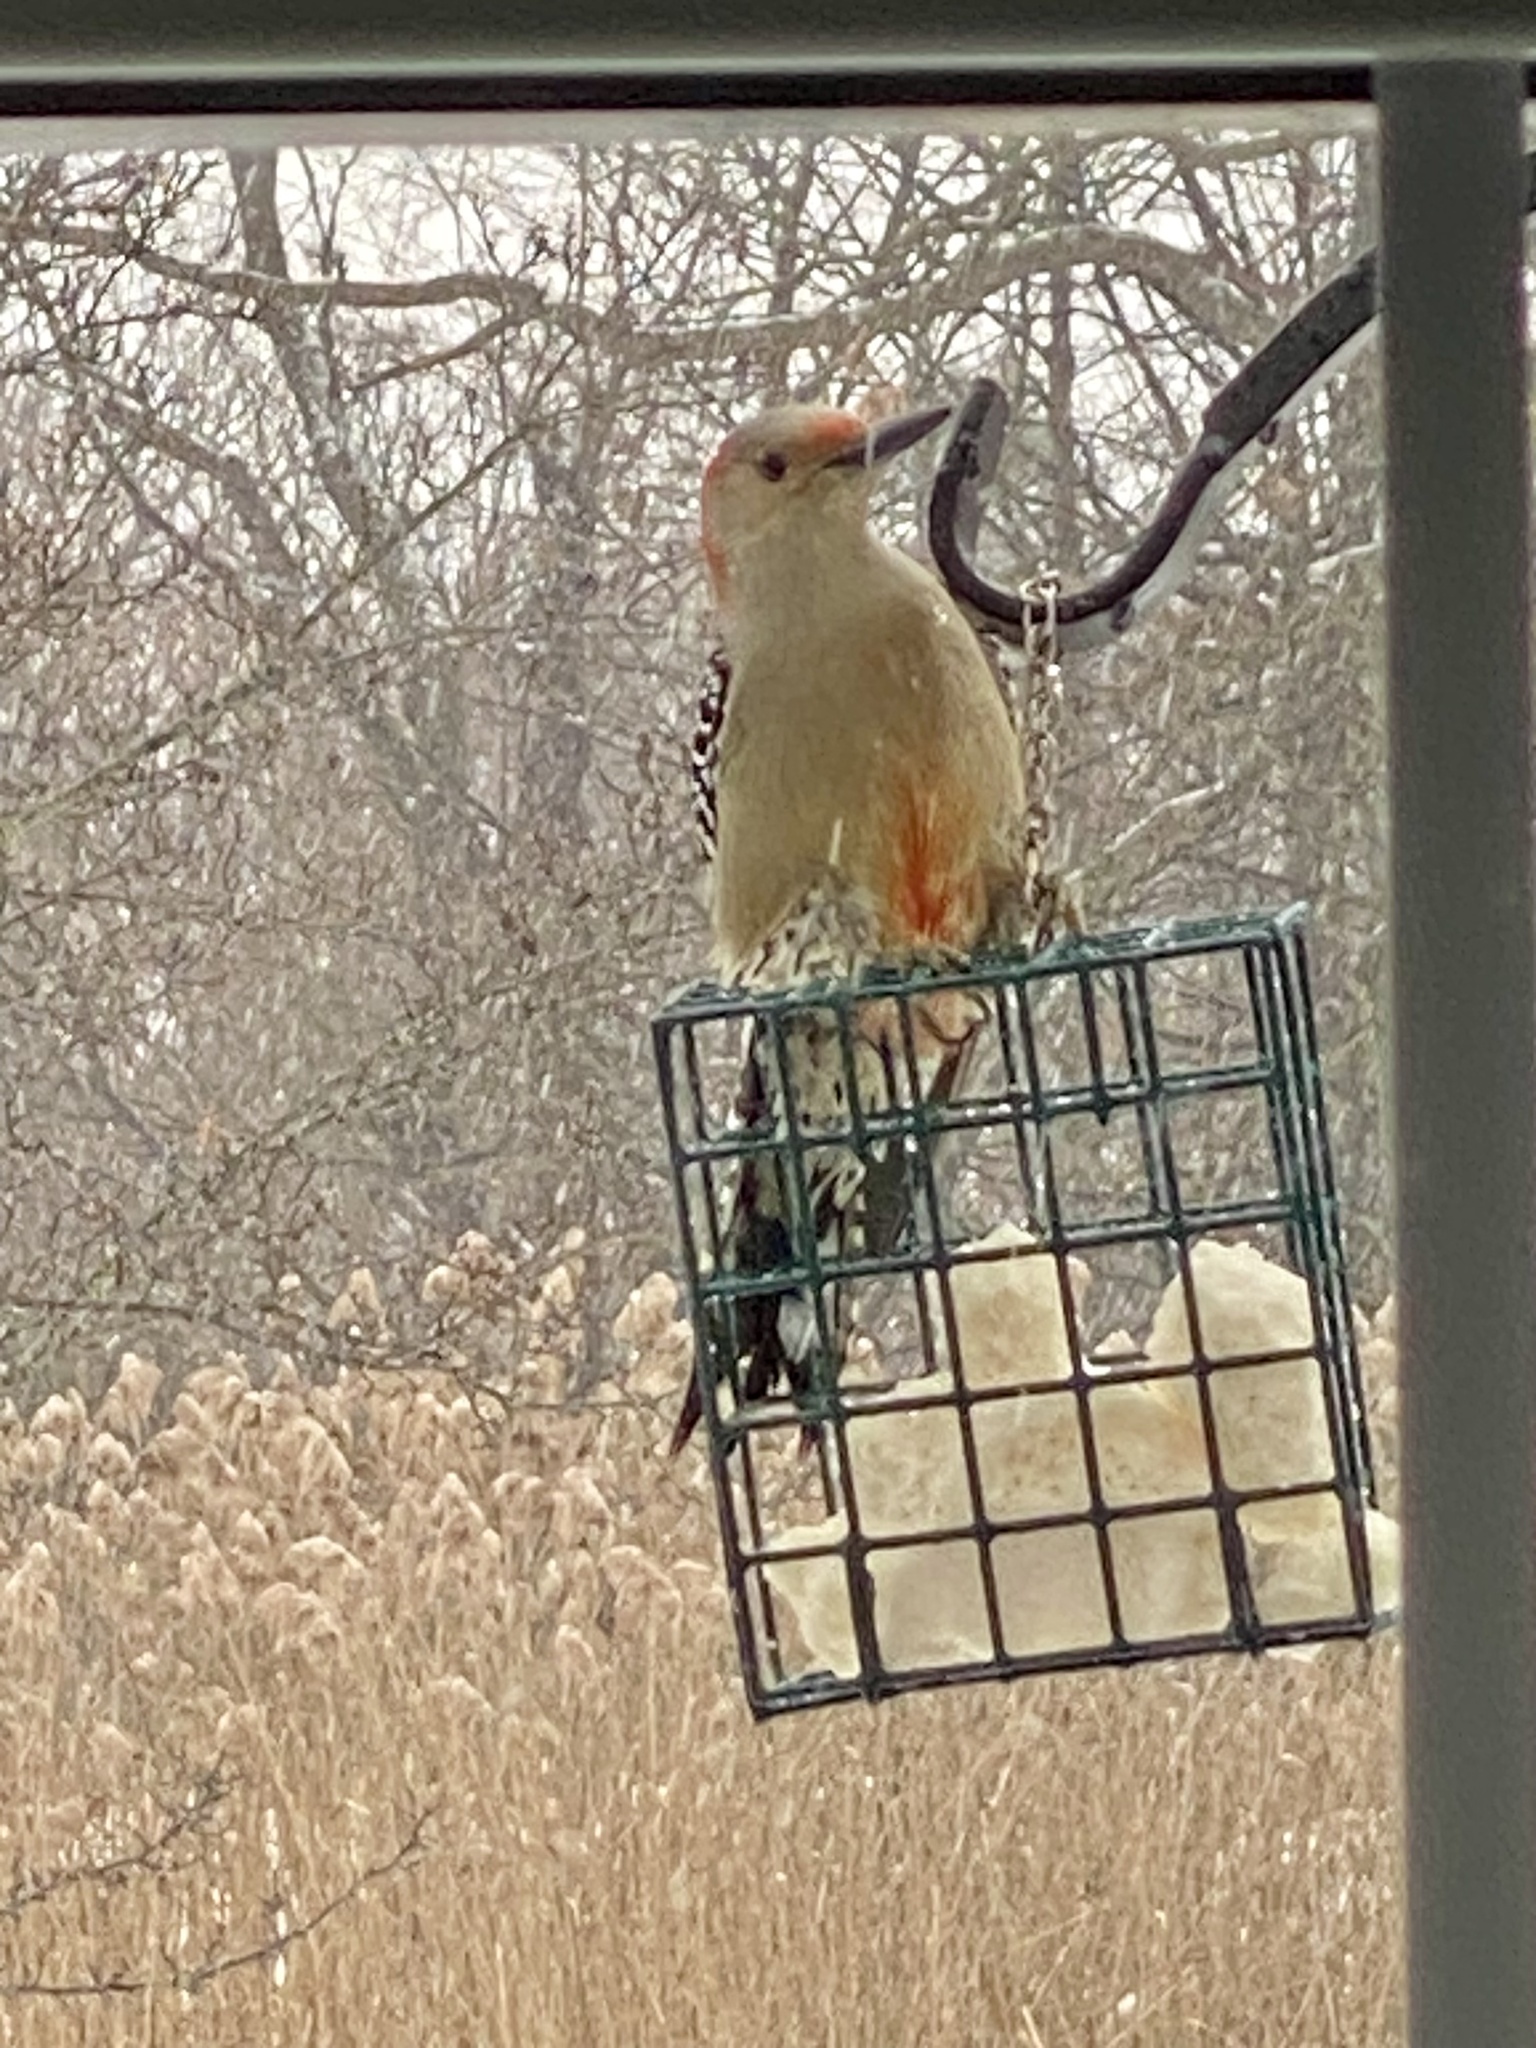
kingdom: Animalia
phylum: Chordata
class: Aves
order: Piciformes
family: Picidae
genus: Melanerpes
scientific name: Melanerpes carolinus
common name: Red-bellied woodpecker
